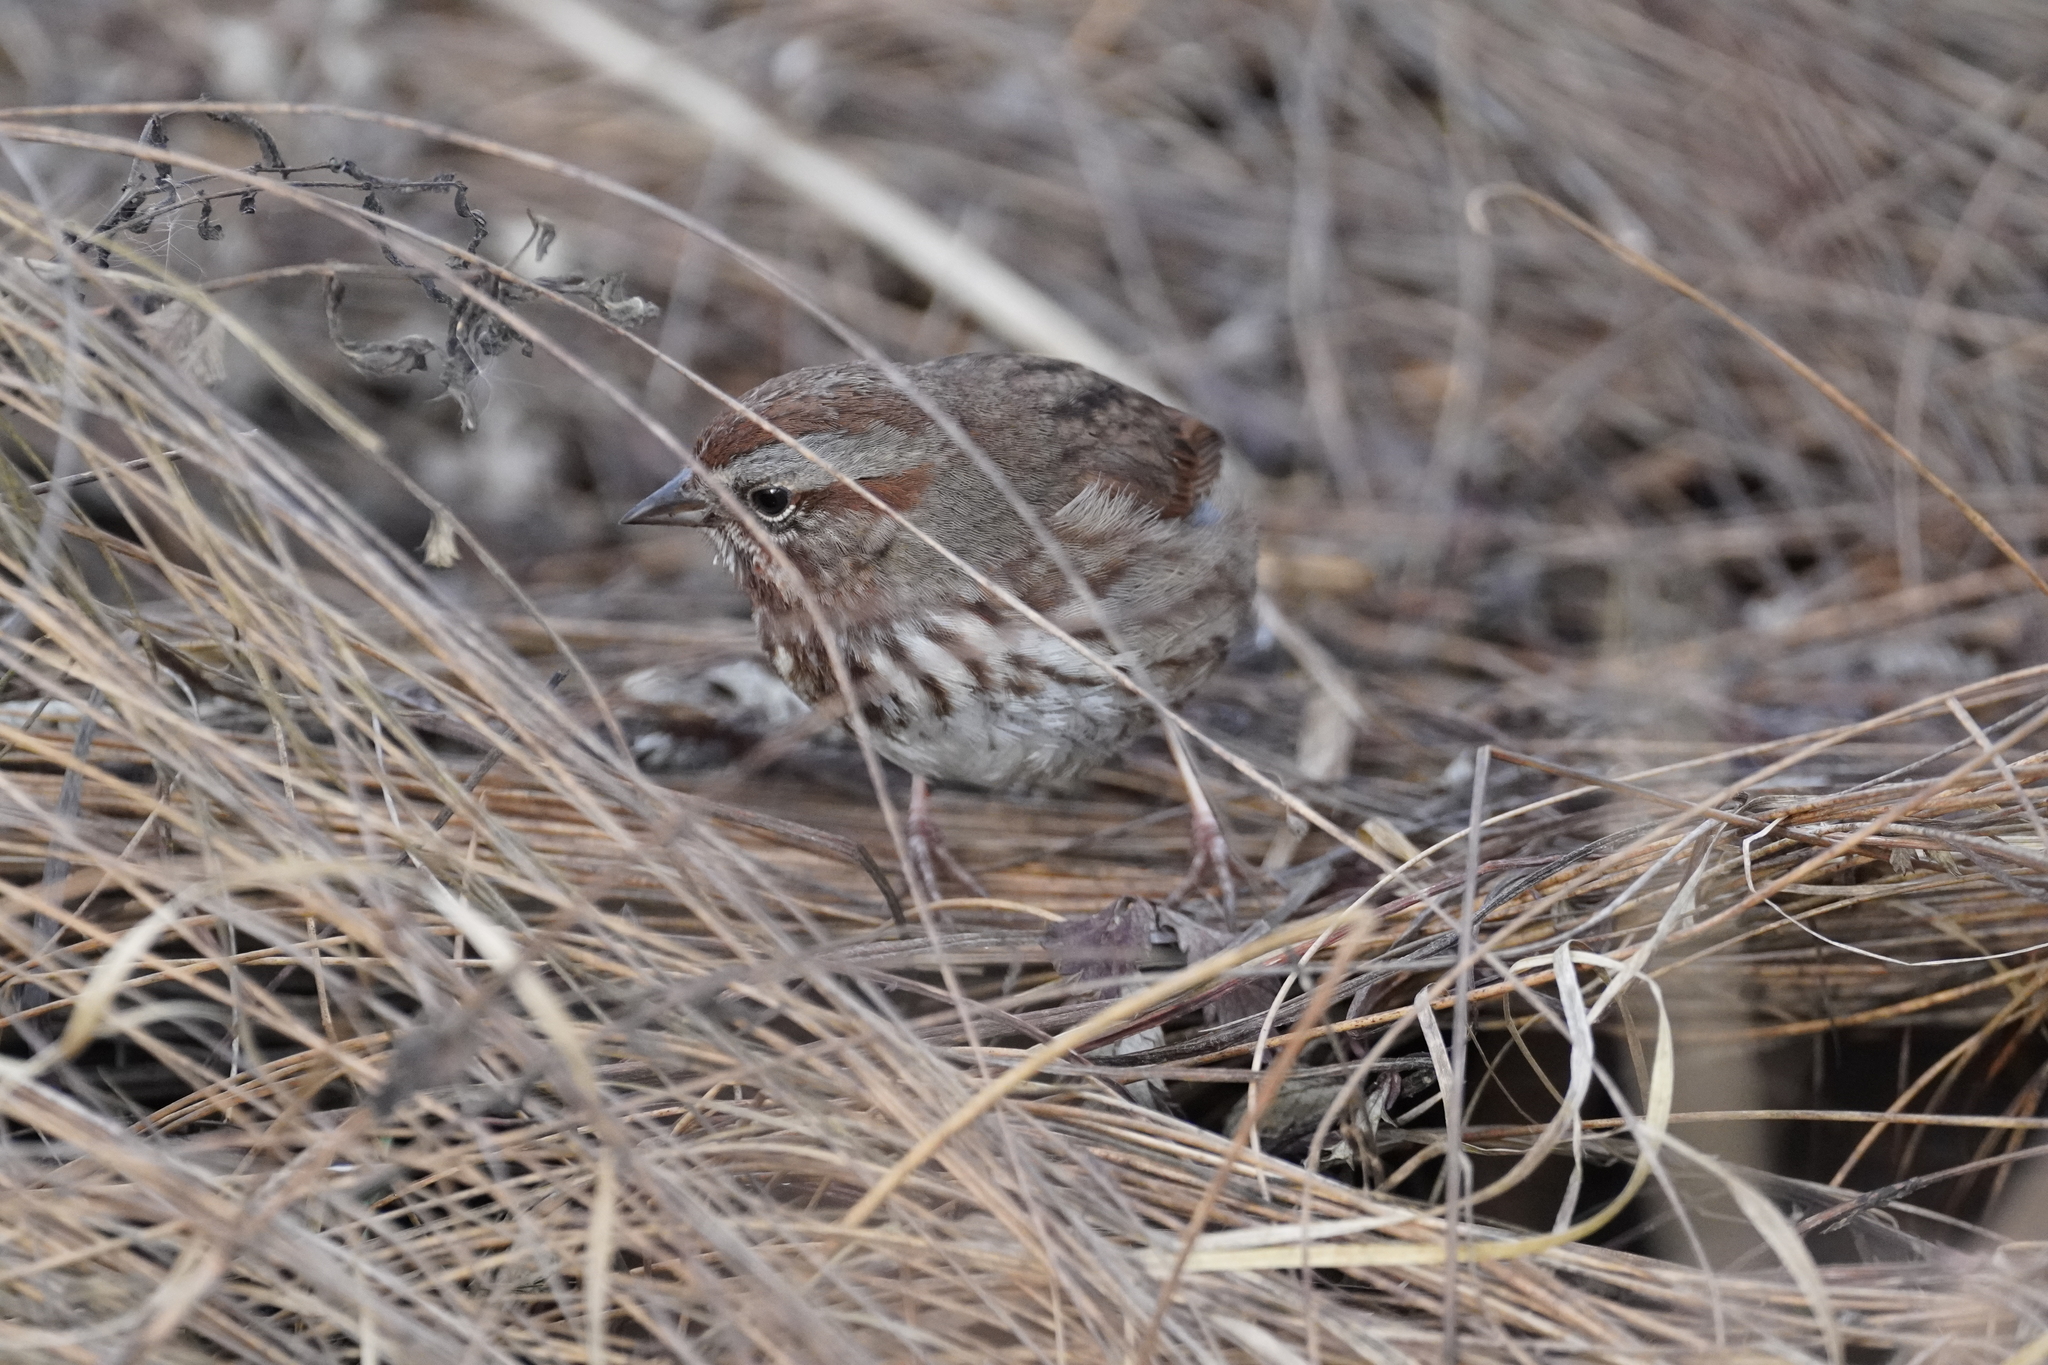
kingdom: Animalia
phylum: Chordata
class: Aves
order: Passeriformes
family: Passerellidae
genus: Melospiza
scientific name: Melospiza melodia
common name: Song sparrow
